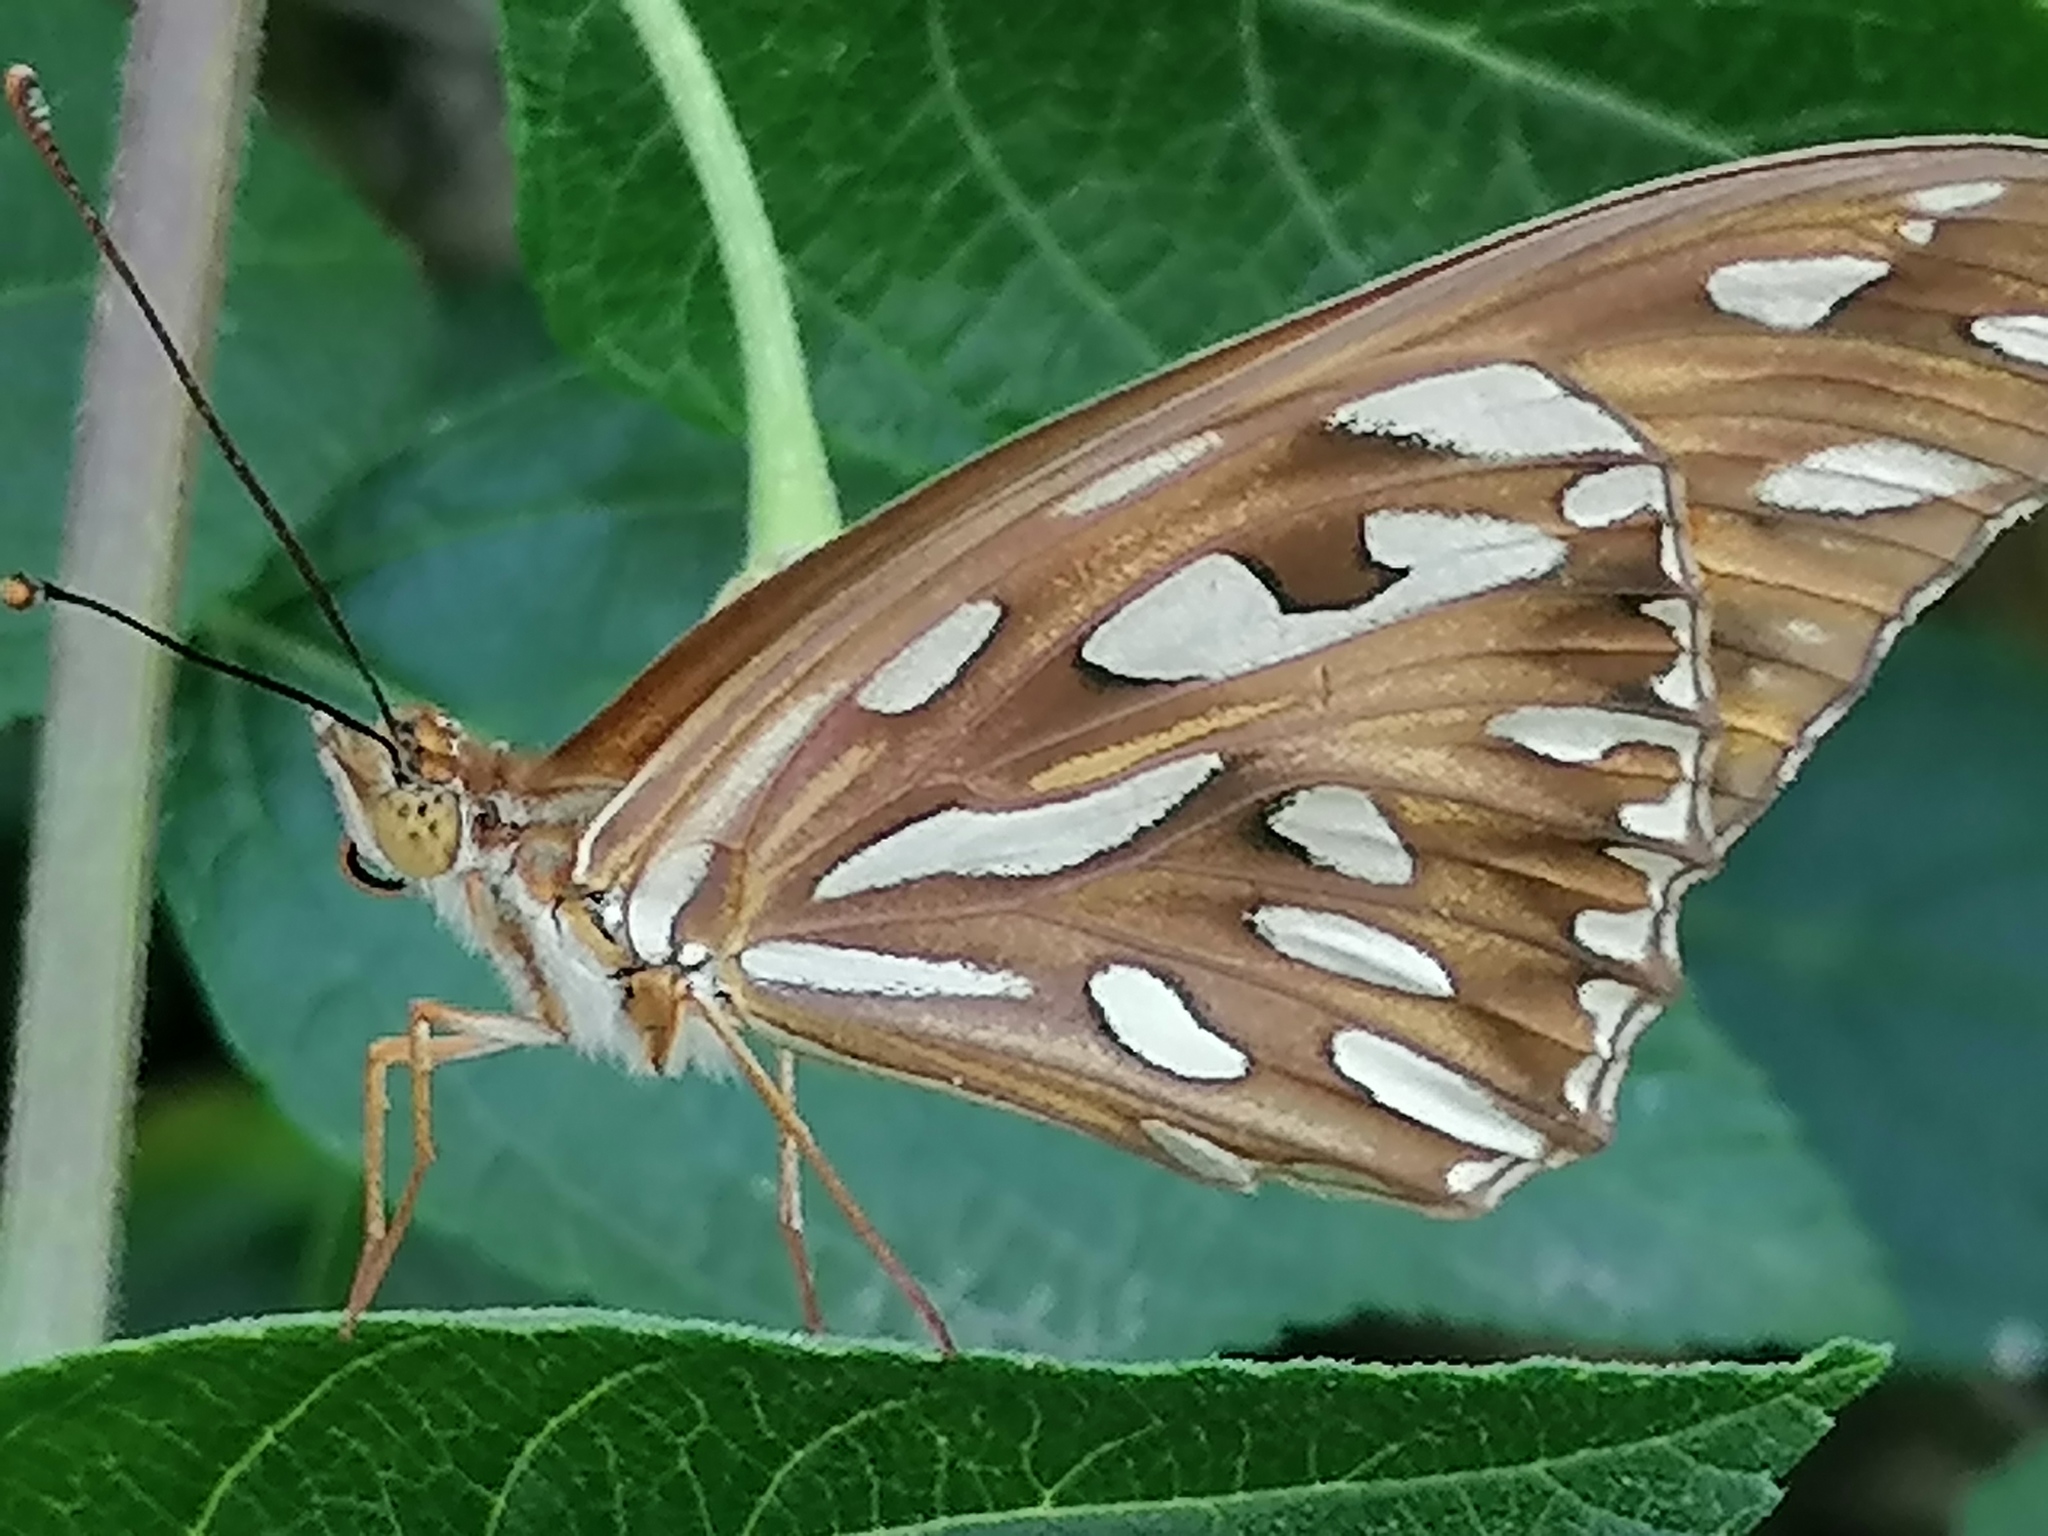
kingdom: Animalia
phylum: Arthropoda
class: Insecta
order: Lepidoptera
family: Nymphalidae
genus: Dione
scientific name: Dione vanillae
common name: Gulf fritillary
